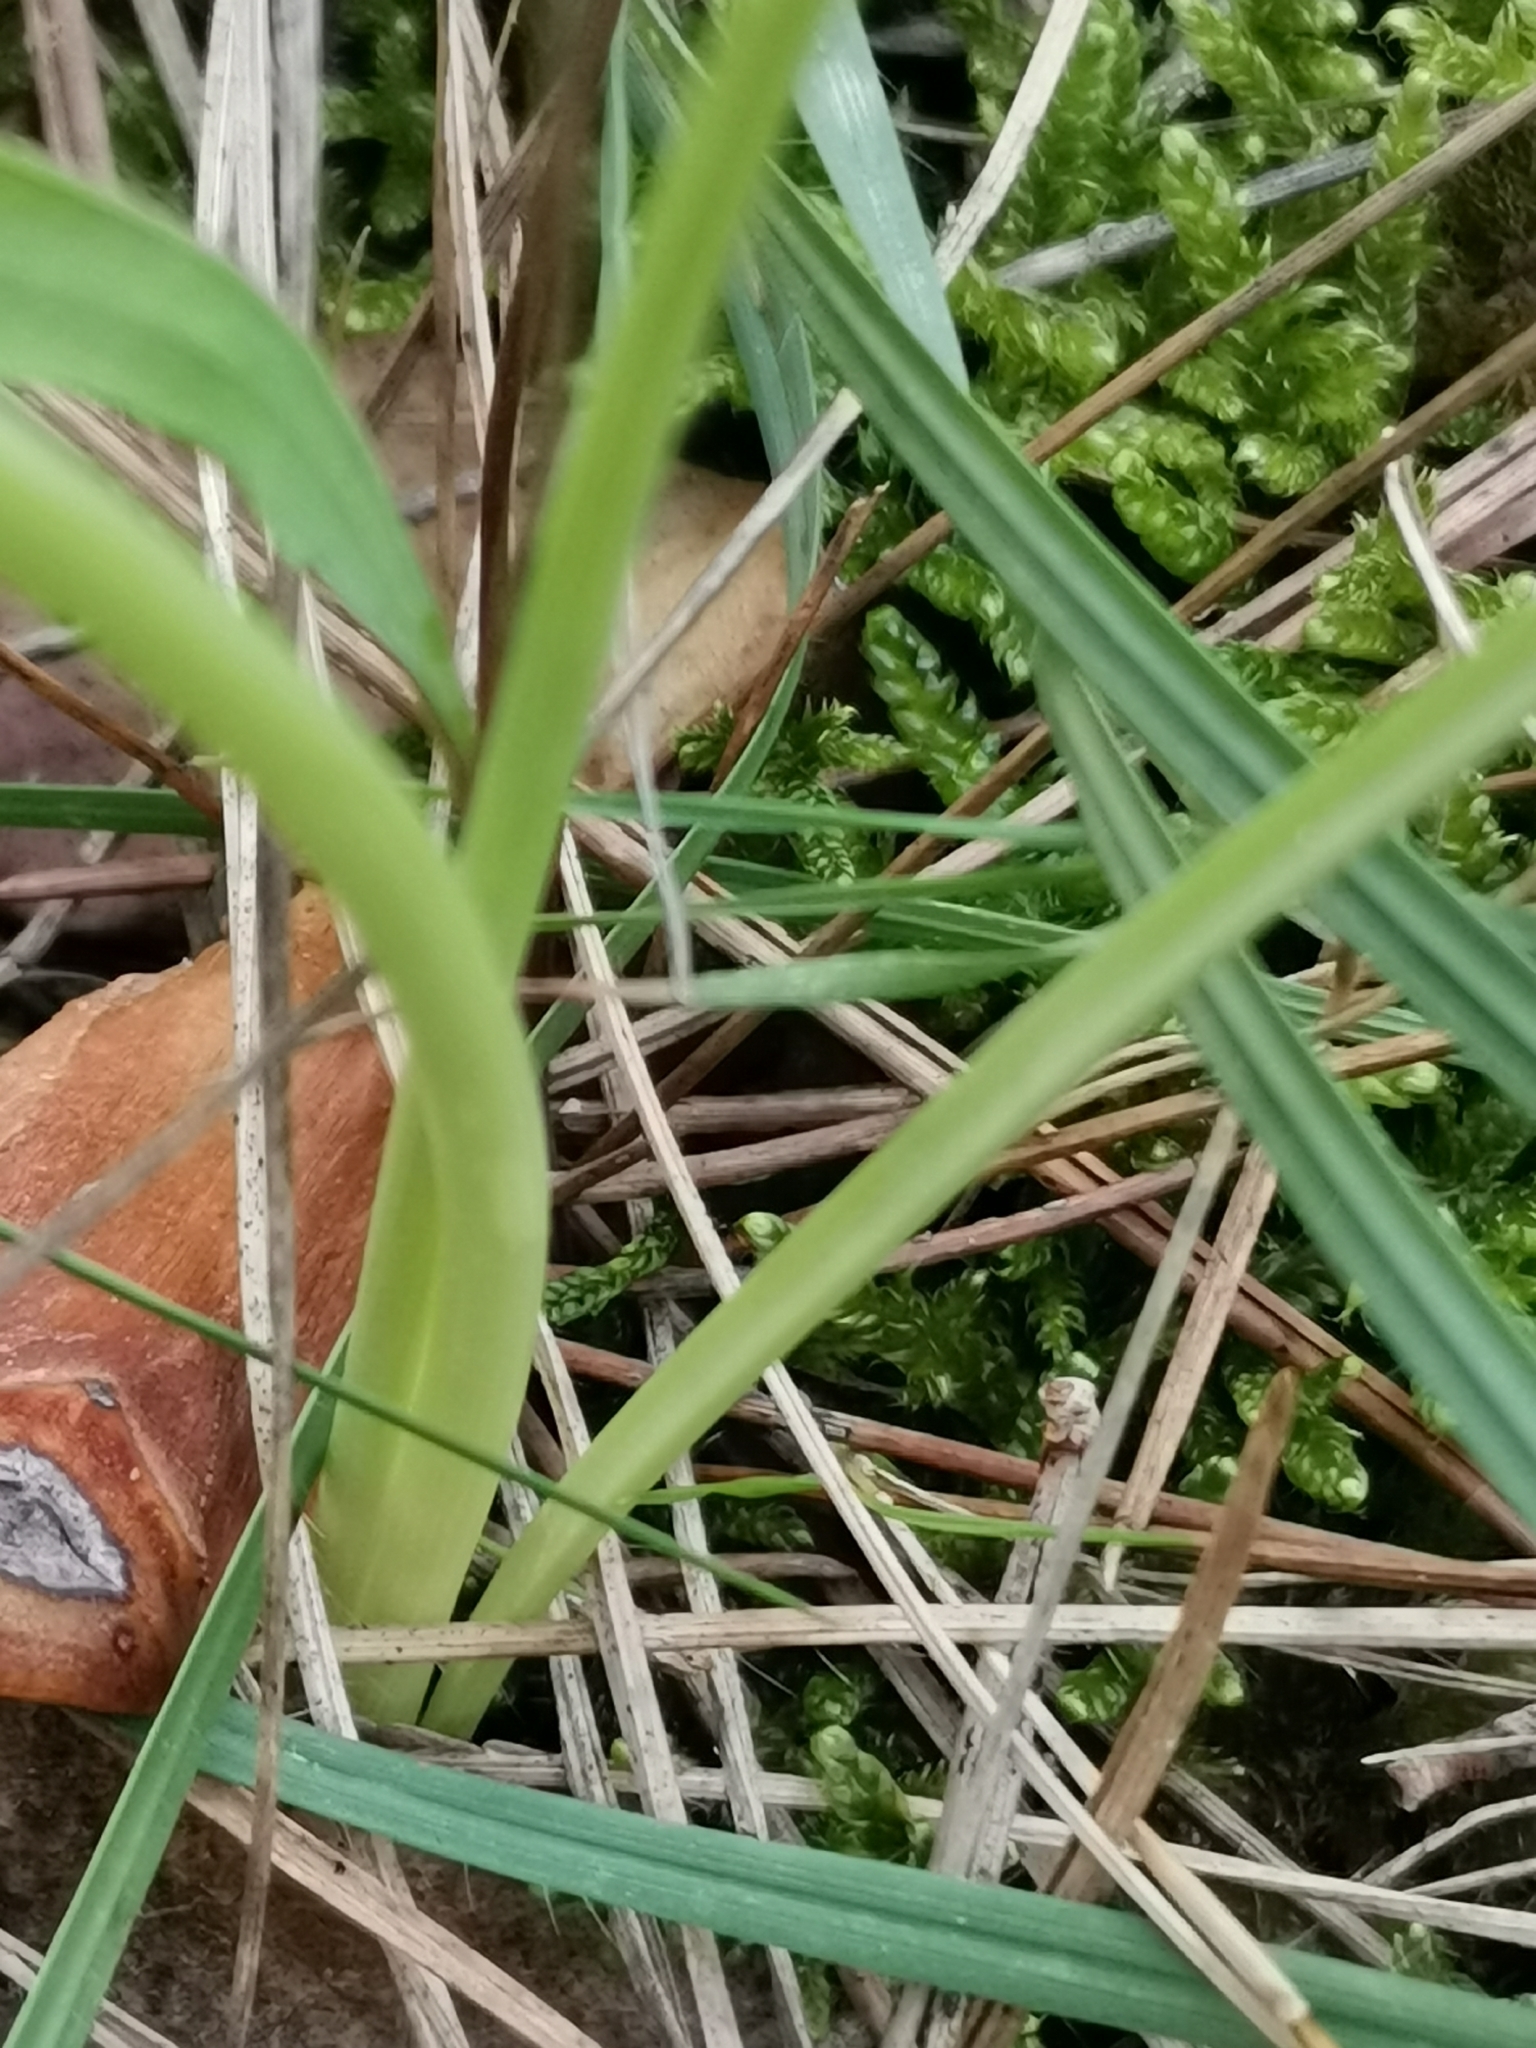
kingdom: Plantae
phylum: Tracheophyta
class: Liliopsida
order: Asparagales
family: Amaryllidaceae
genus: Narcissus
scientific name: Narcissus assoanus
